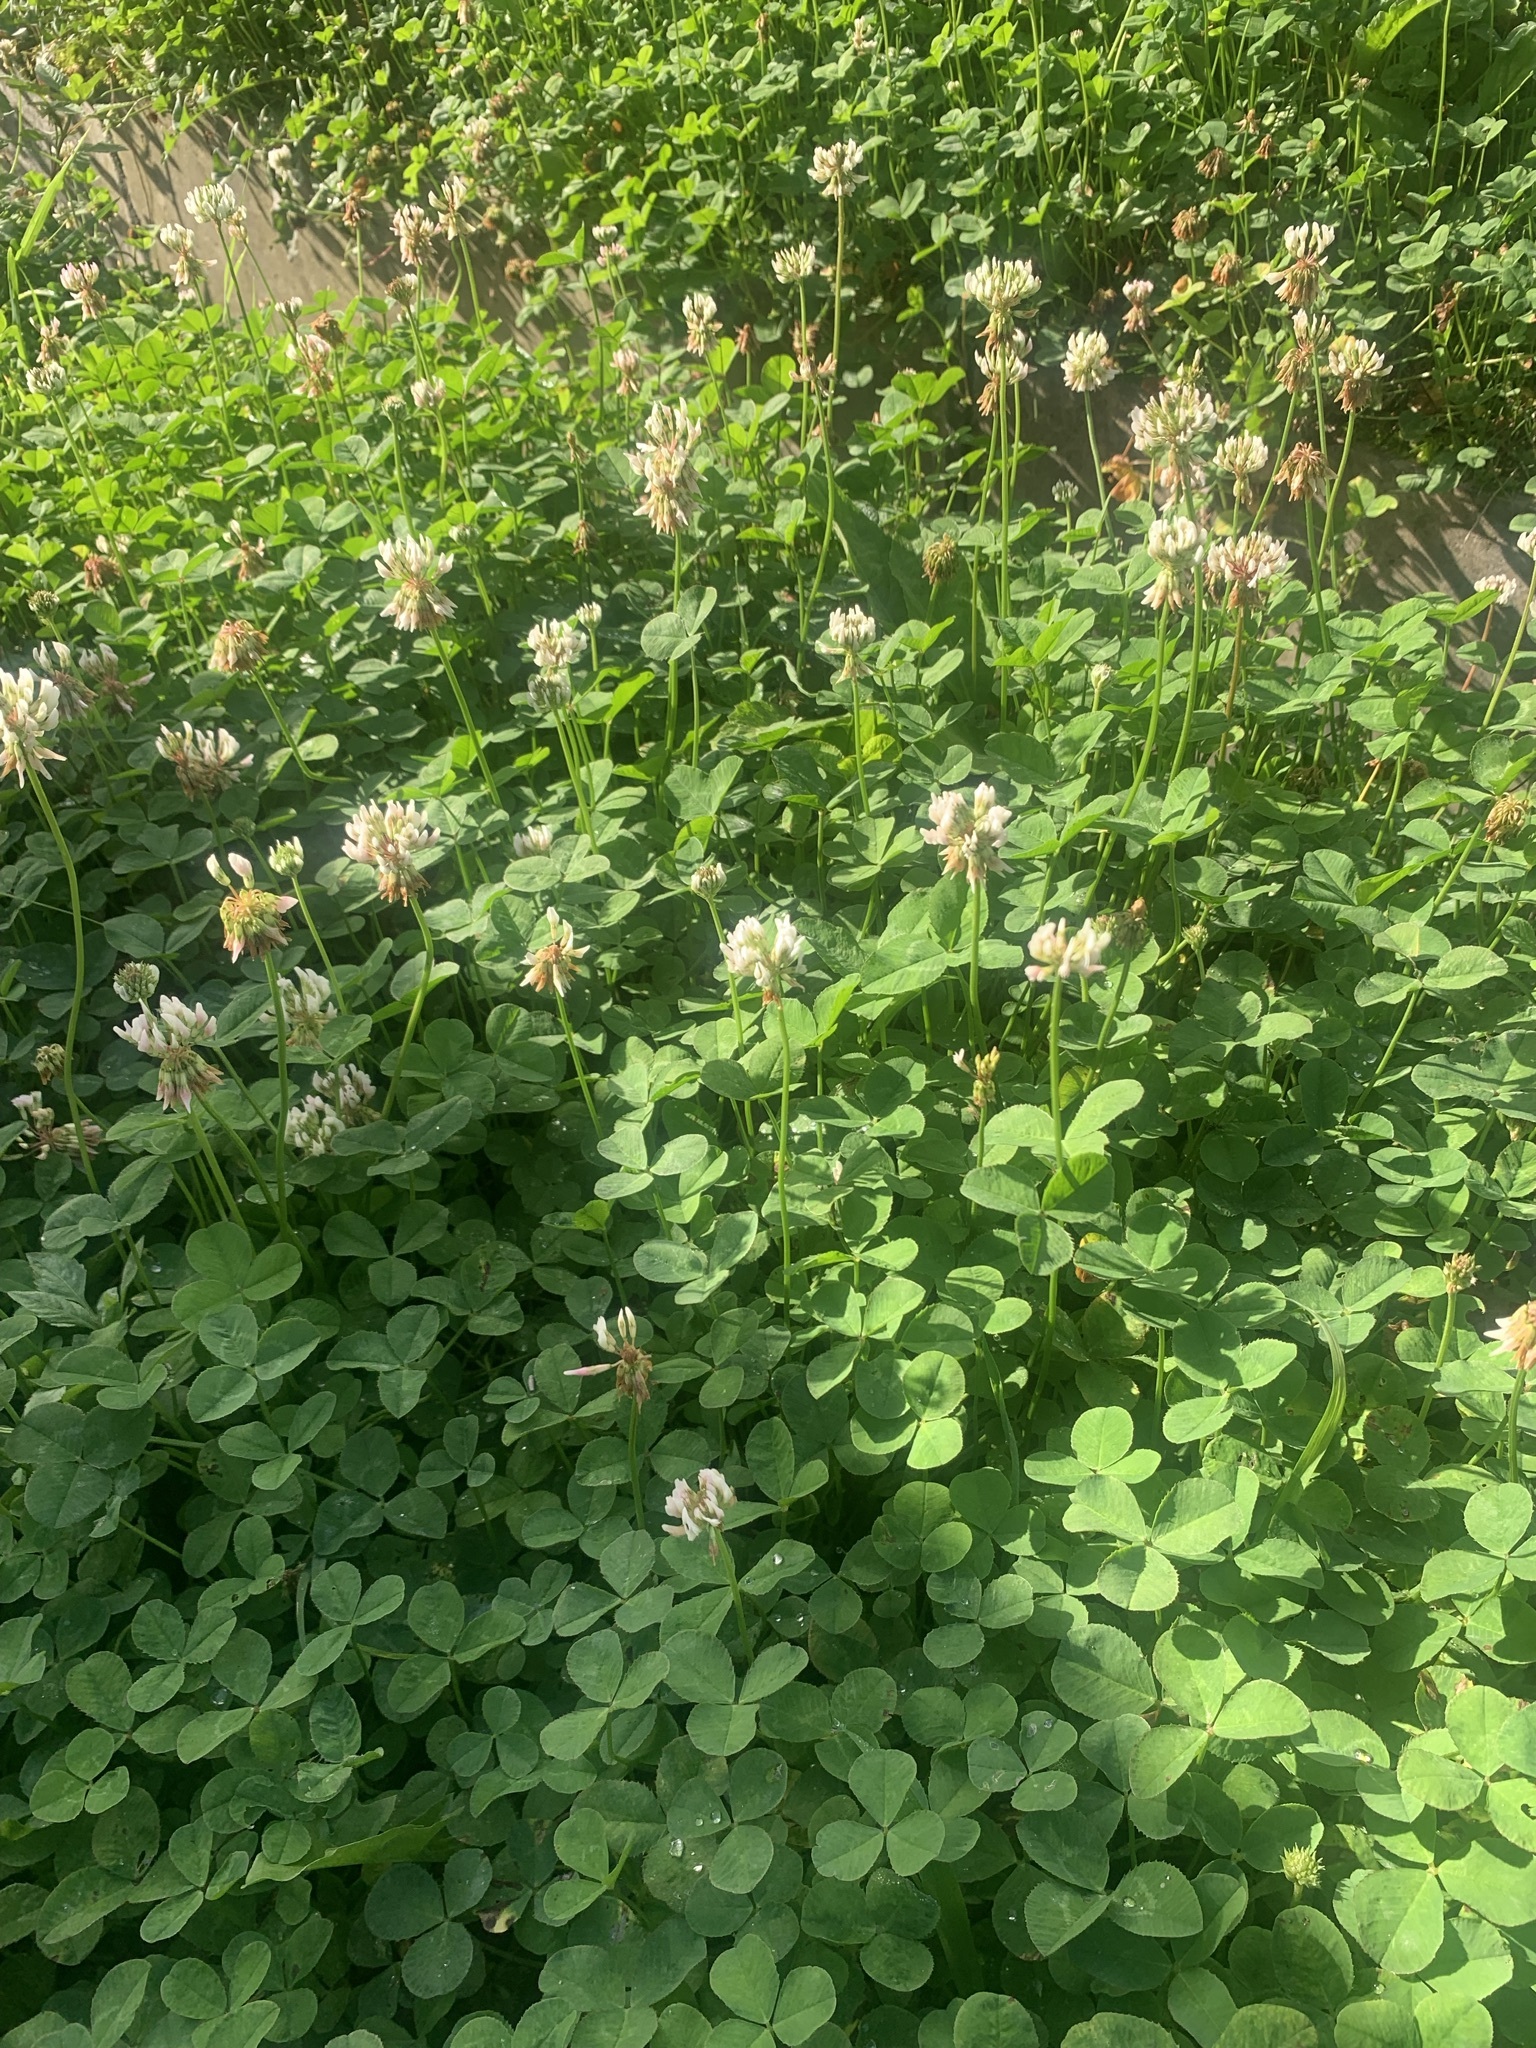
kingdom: Plantae
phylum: Tracheophyta
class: Magnoliopsida
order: Fabales
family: Fabaceae
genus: Trifolium
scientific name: Trifolium repens
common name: White clover
